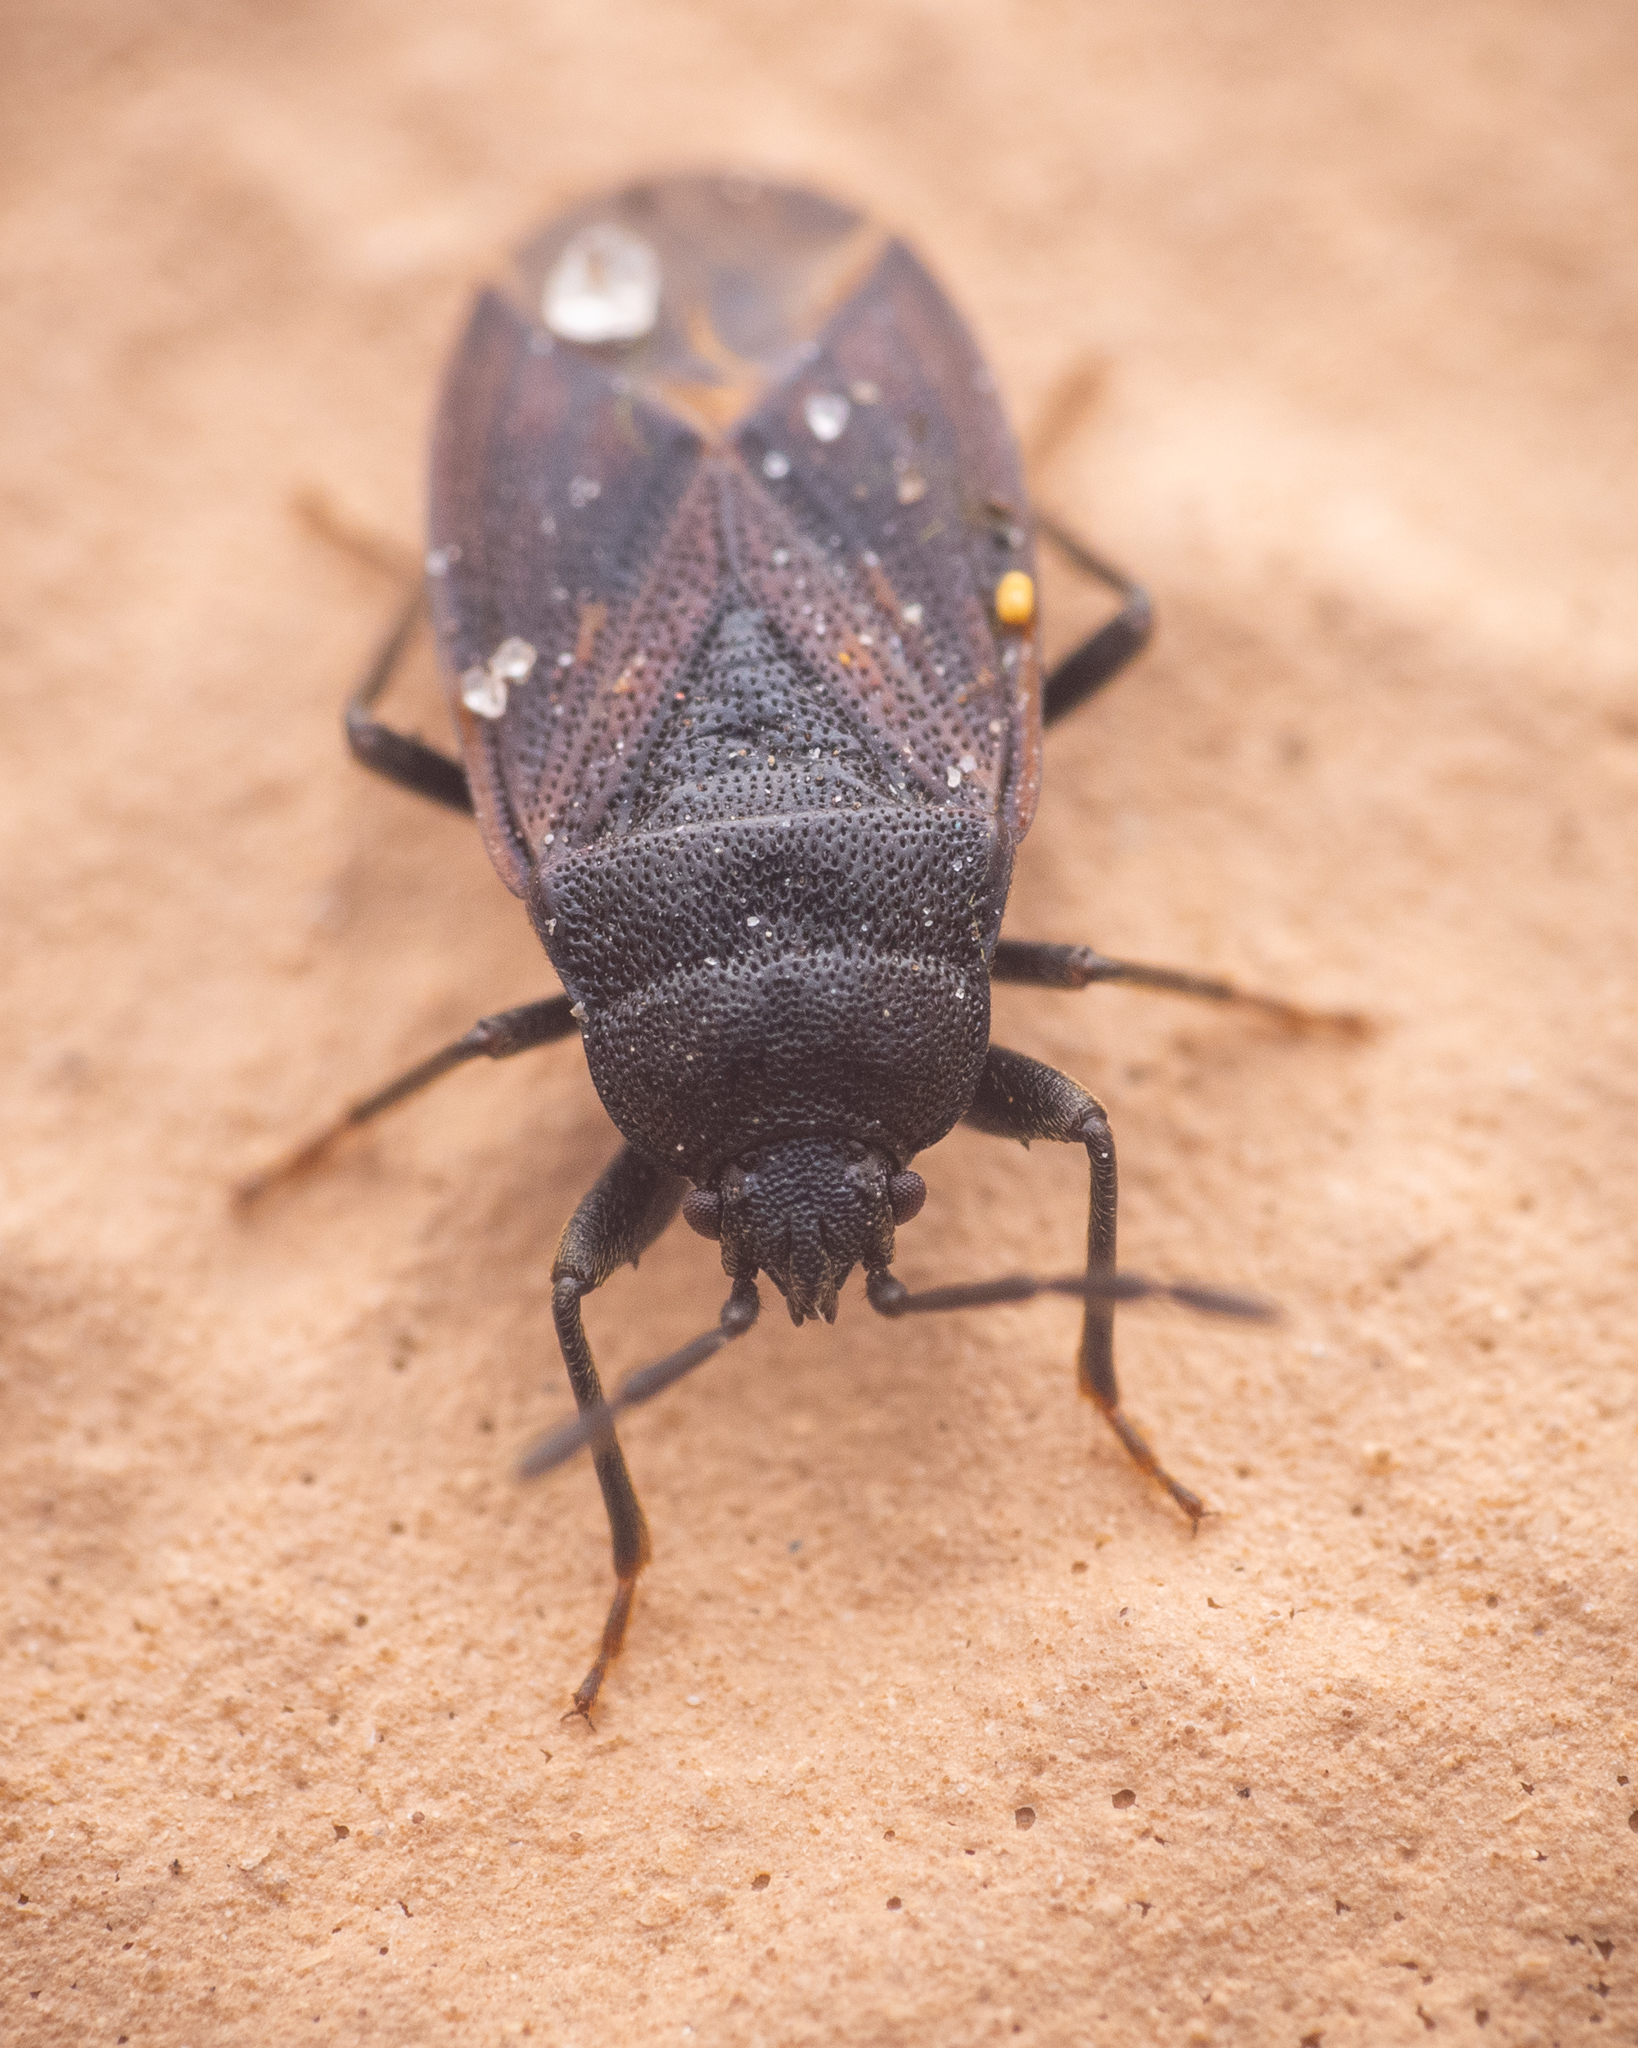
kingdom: Animalia
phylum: Arthropoda
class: Insecta
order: Hemiptera
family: Rhyparochromidae
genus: Drymus
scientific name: Drymus ryeii
